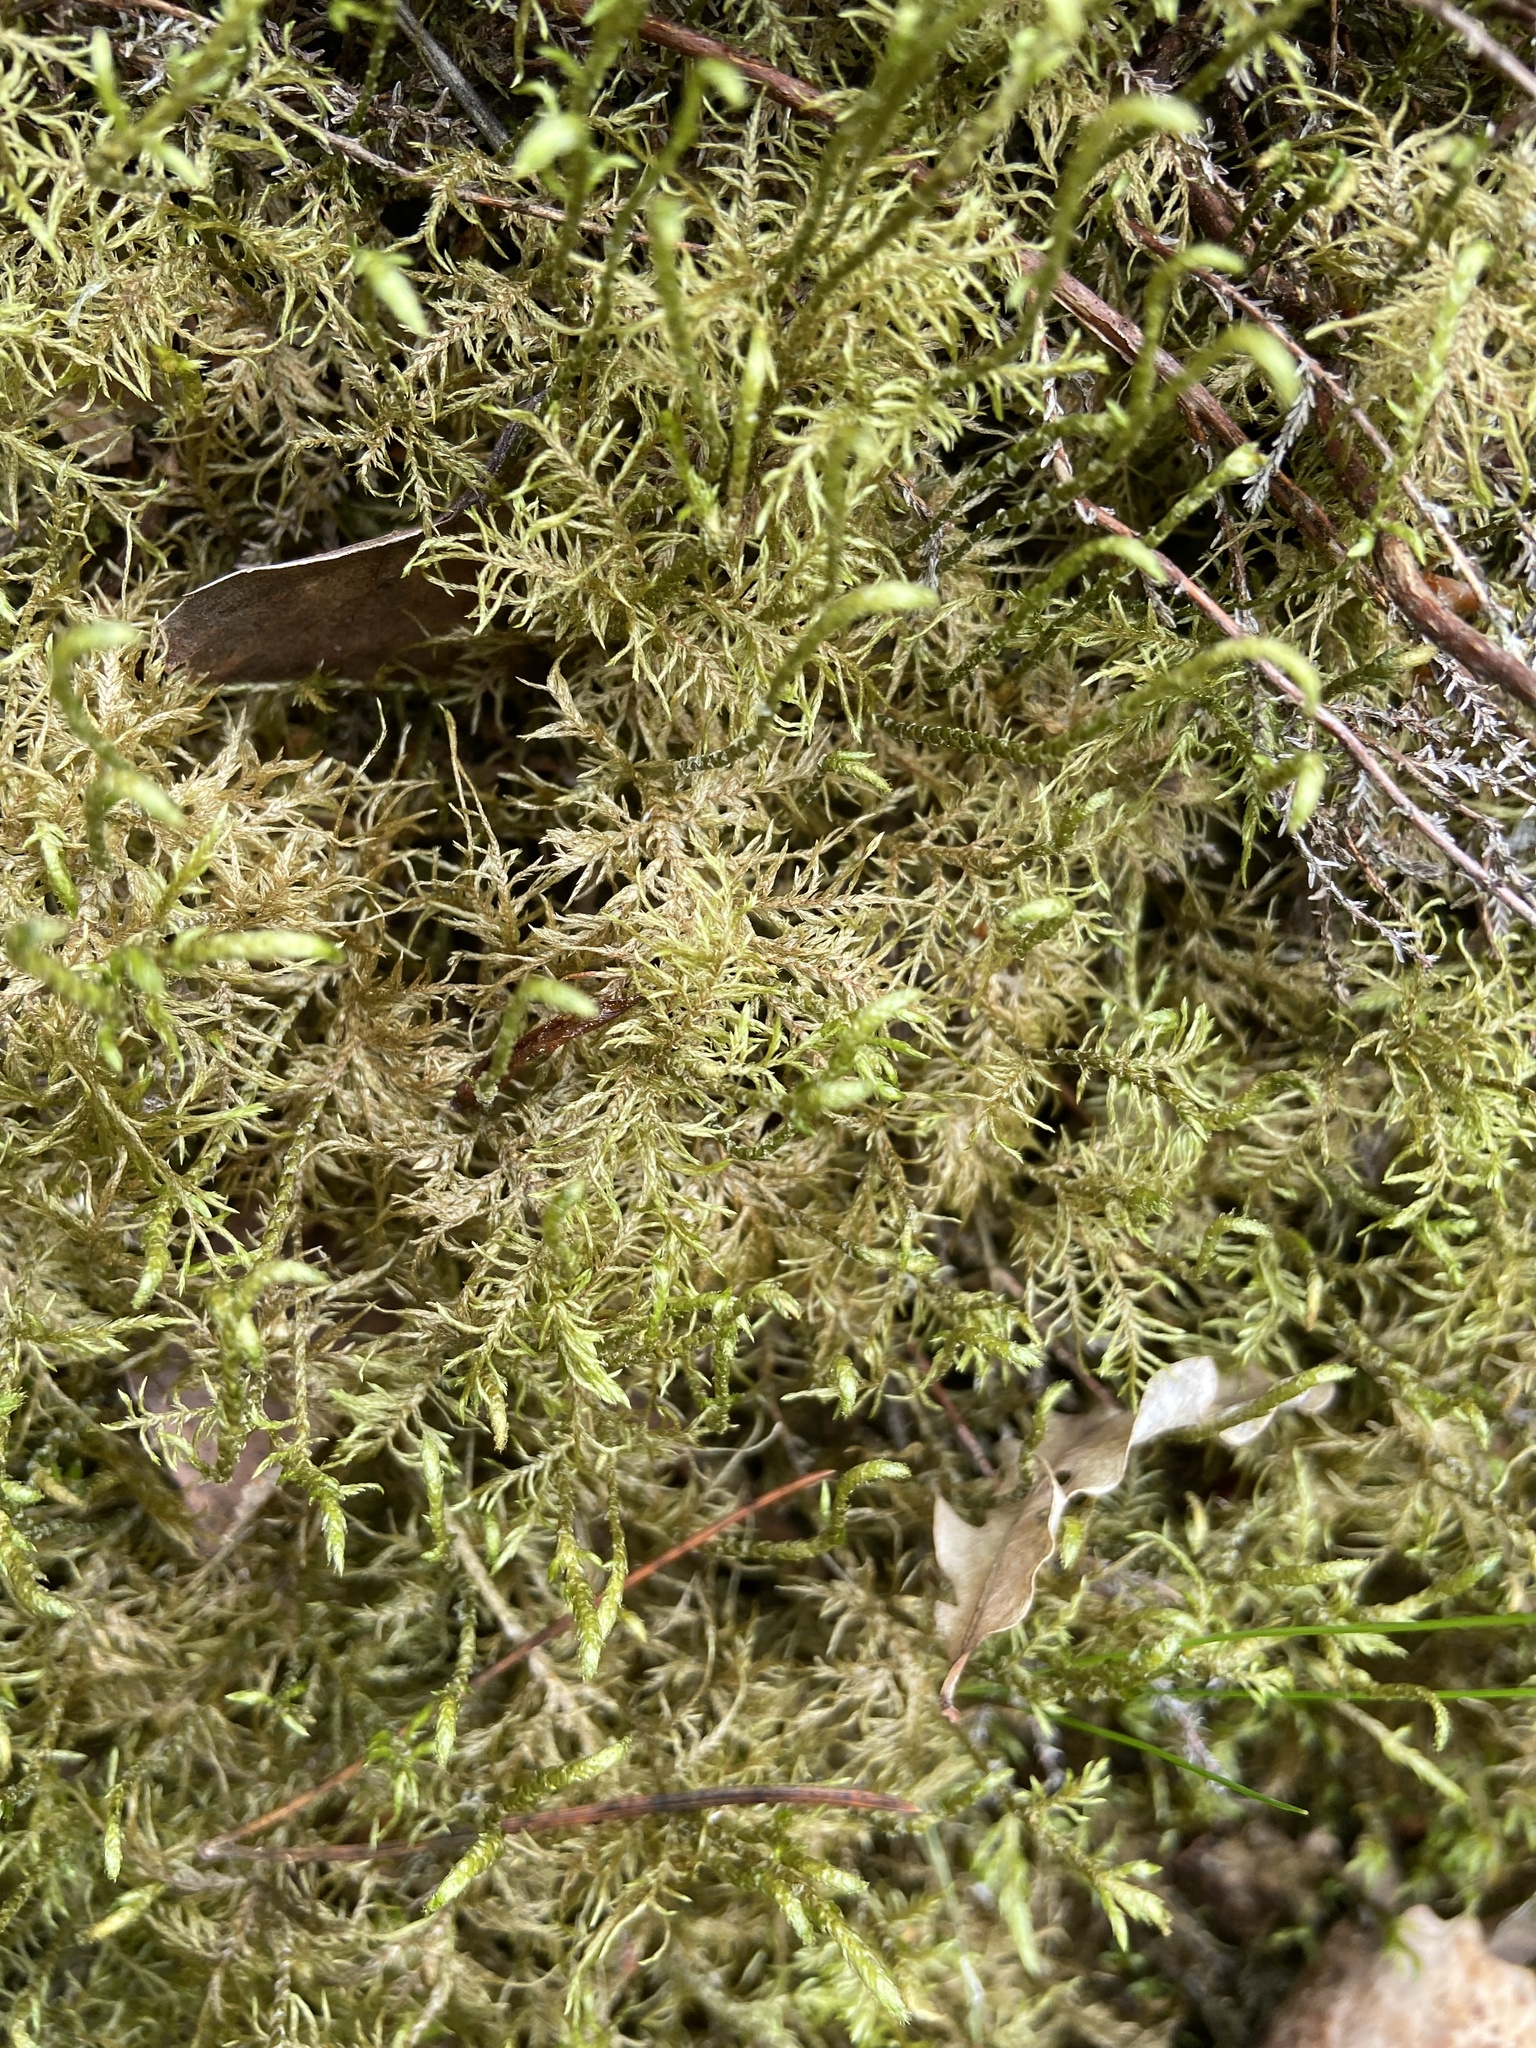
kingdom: Plantae
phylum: Bryophyta
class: Bryopsida
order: Hypnales
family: Hylocomiaceae
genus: Hylocomium
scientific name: Hylocomium splendens
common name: Stairstep moss
